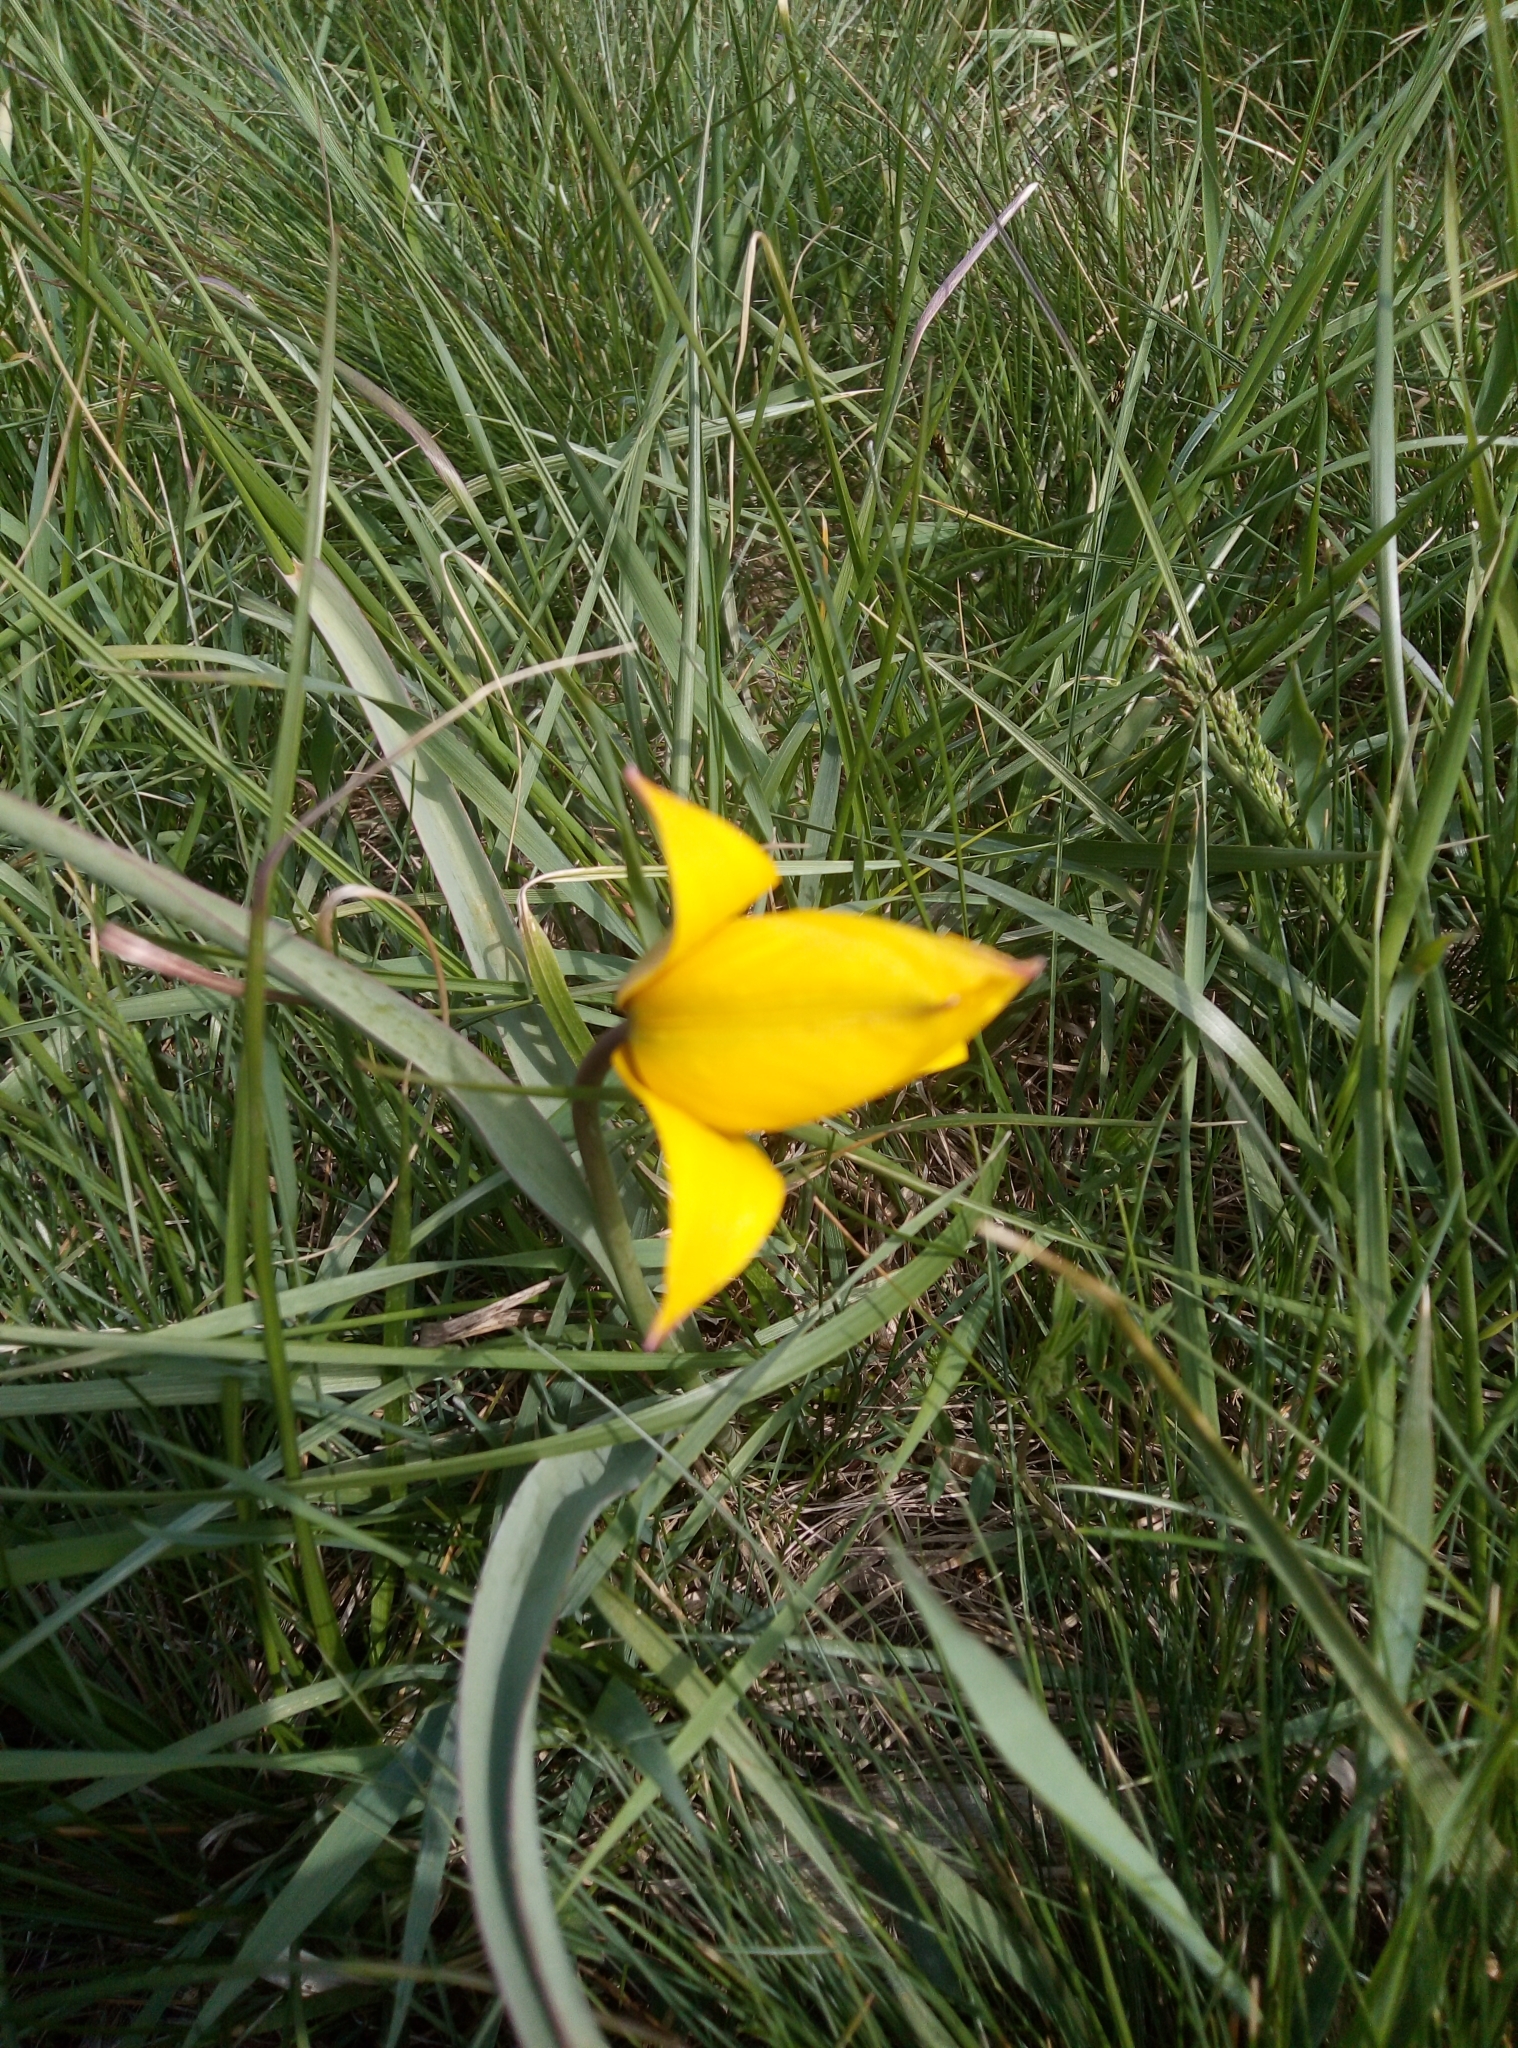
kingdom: Plantae
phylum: Tracheophyta
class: Liliopsida
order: Liliales
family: Liliaceae
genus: Tulipa
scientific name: Tulipa sylvestris
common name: Wild tulip
